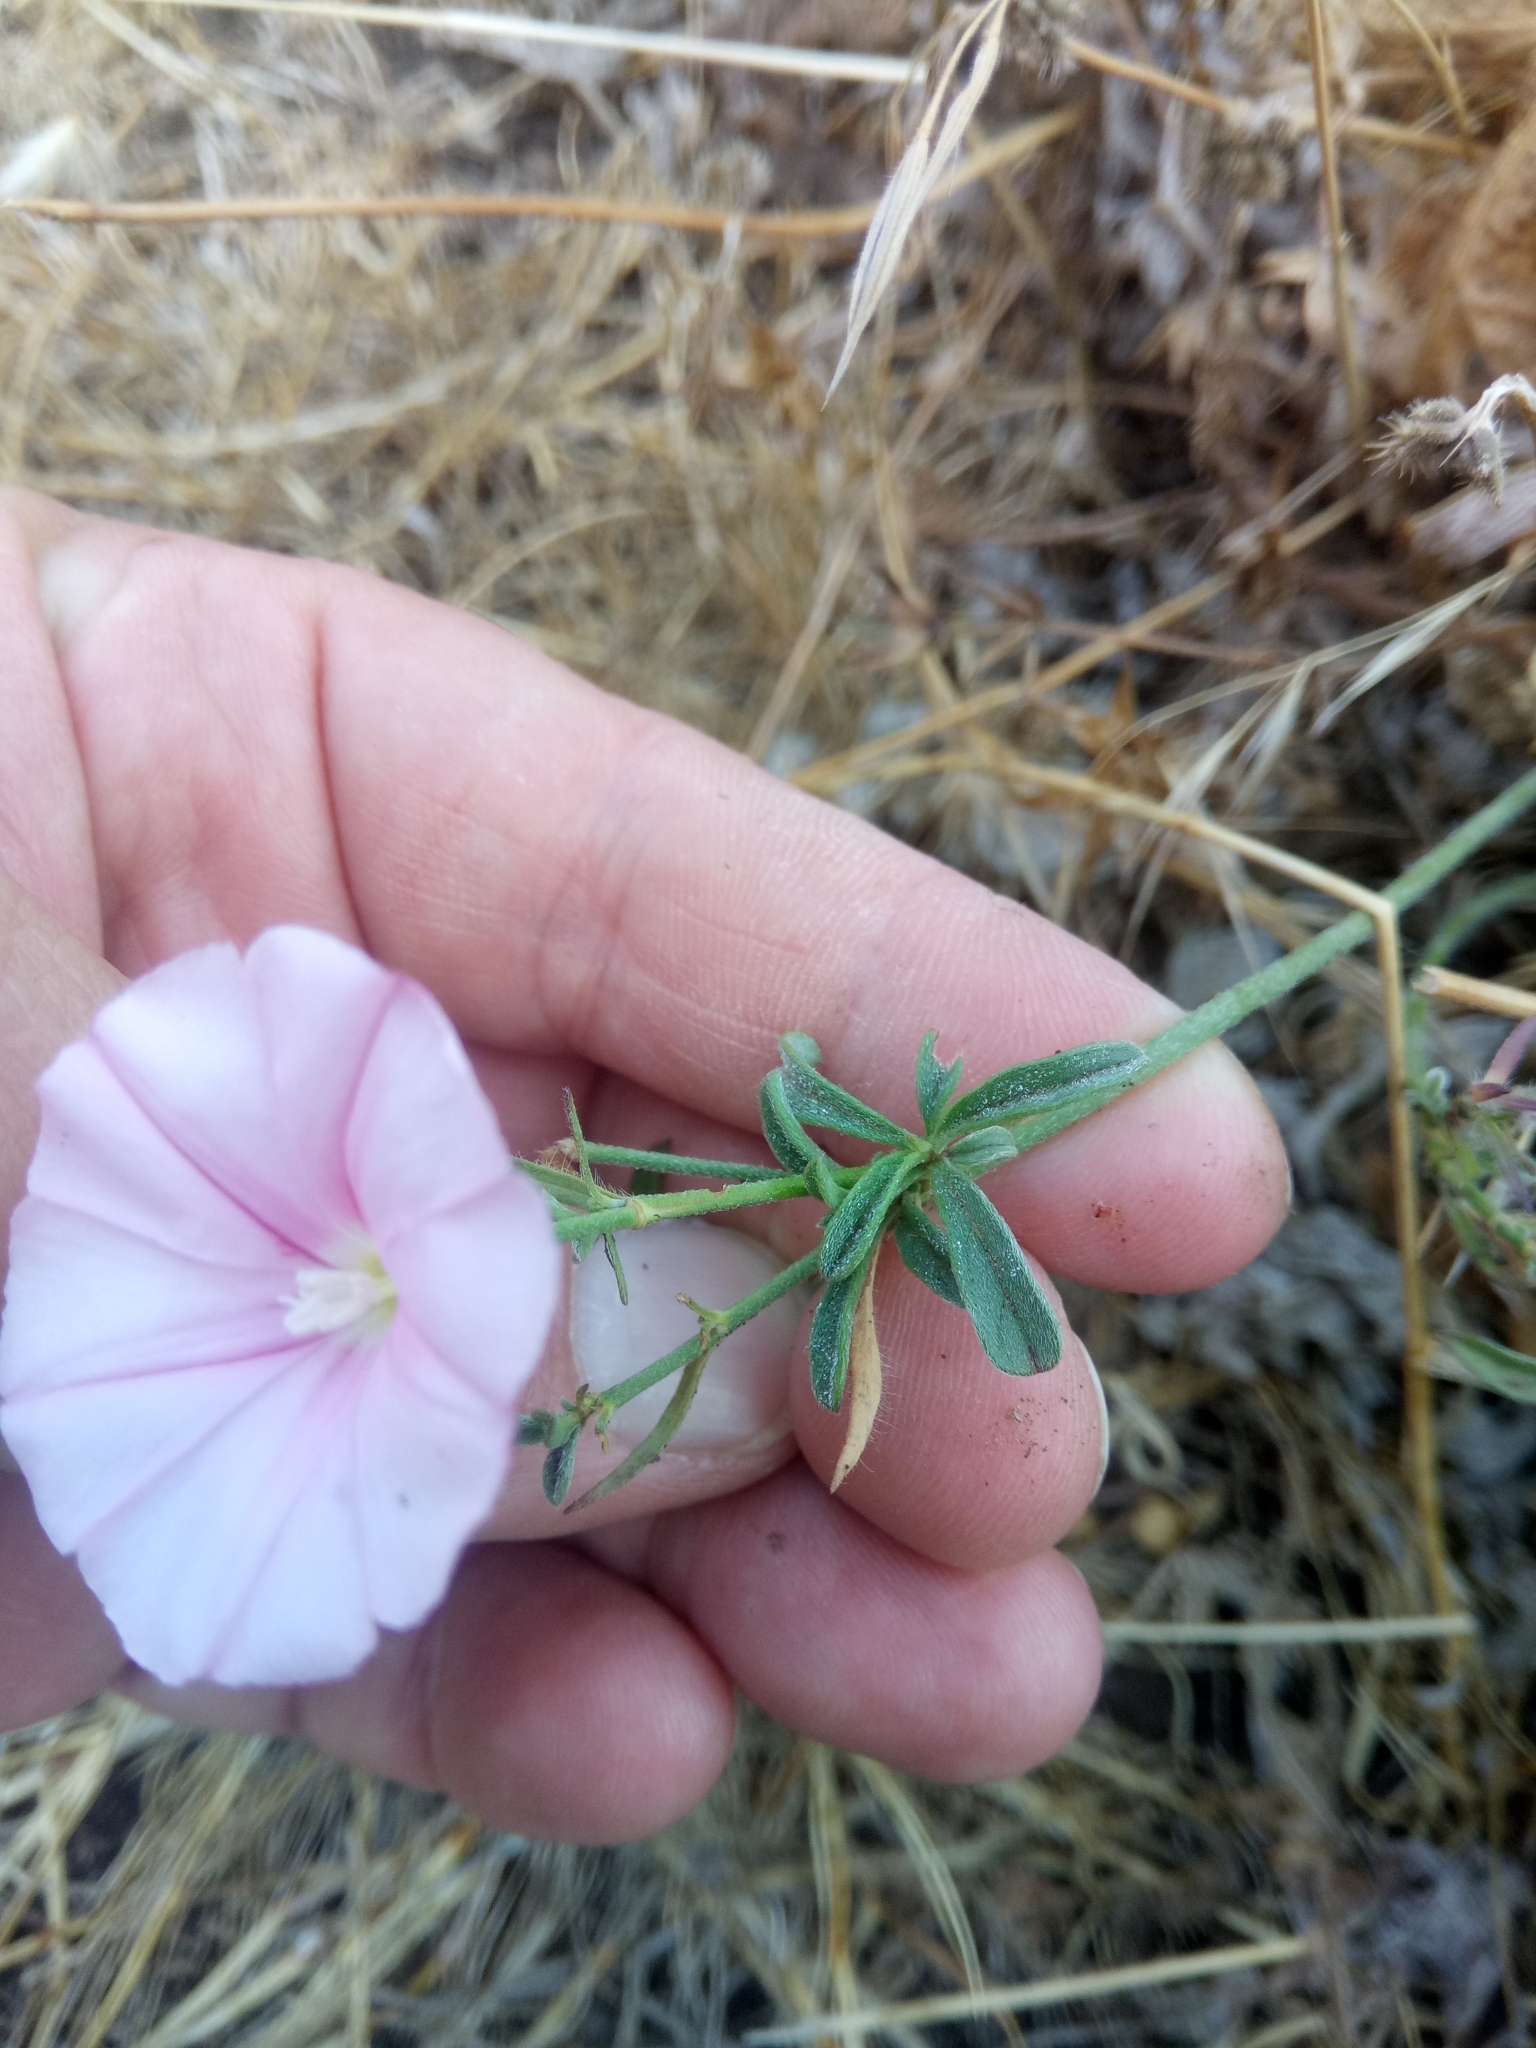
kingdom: Plantae
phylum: Tracheophyta
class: Magnoliopsida
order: Solanales
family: Convolvulaceae
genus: Convolvulus
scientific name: Convolvulus cantabrica
